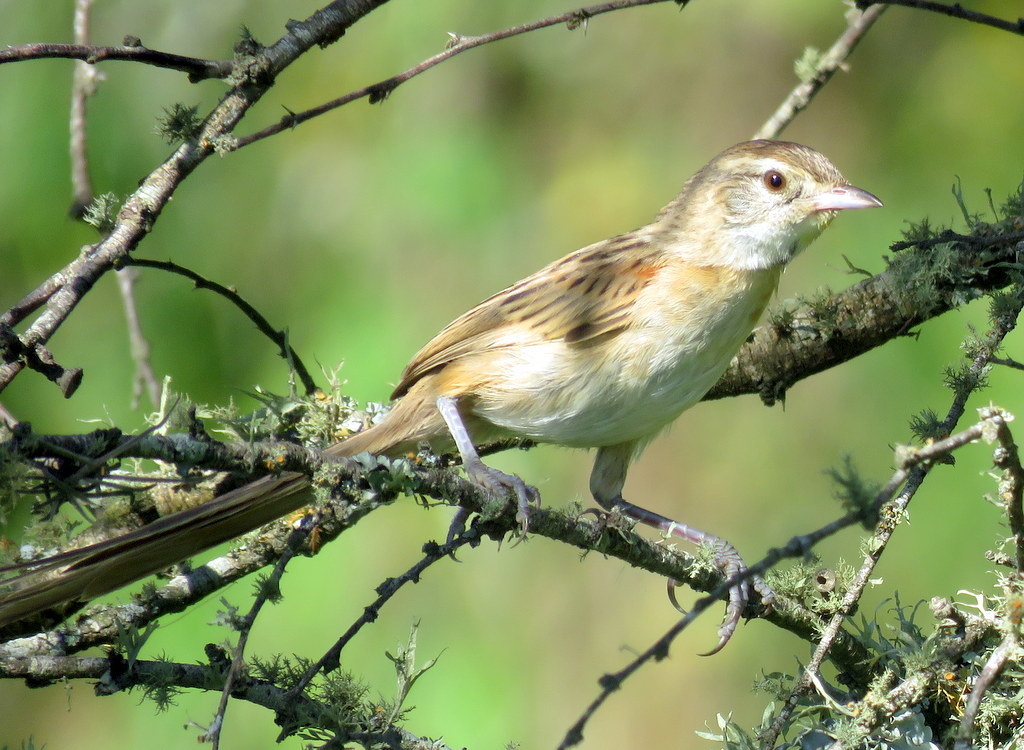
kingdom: Animalia
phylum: Chordata
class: Aves
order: Passeriformes
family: Furnariidae
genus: Schoeniophylax
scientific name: Schoeniophylax phryganophilus
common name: Chotoy spinetail
